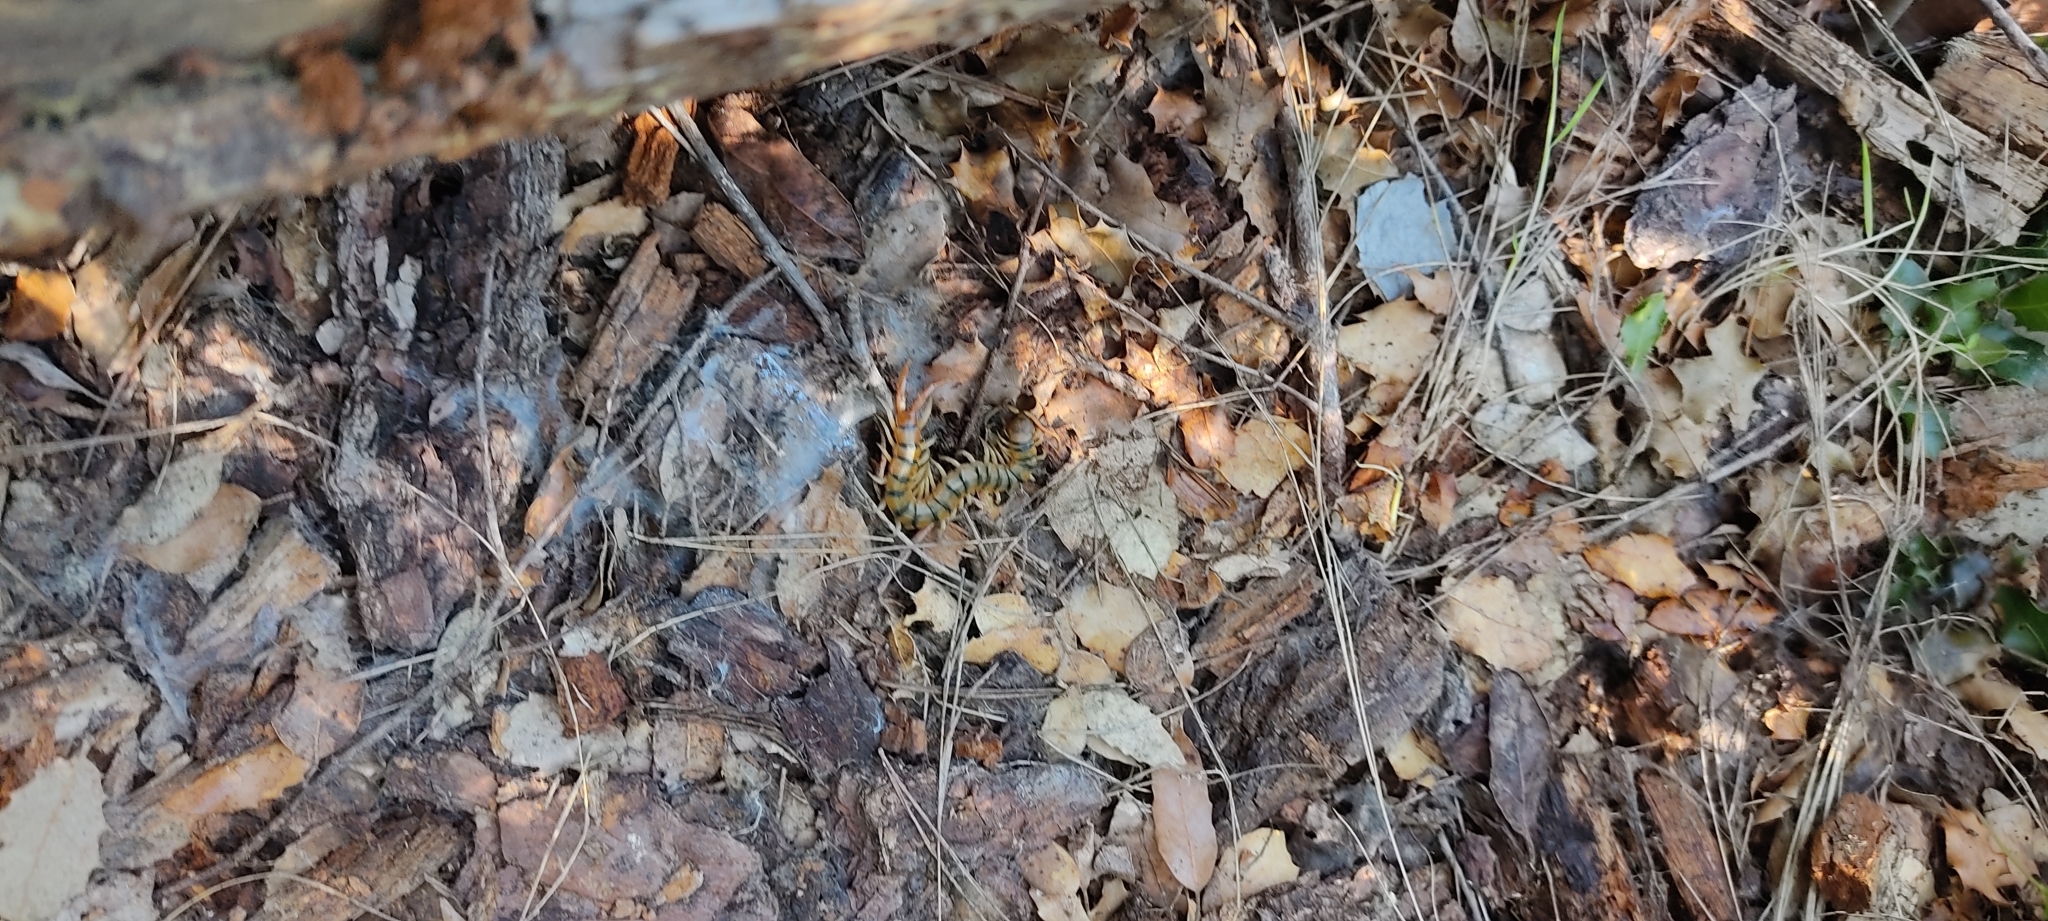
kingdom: Animalia
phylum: Arthropoda
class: Chilopoda
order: Scolopendromorpha
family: Scolopendridae
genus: Scolopendra
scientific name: Scolopendra cingulata
